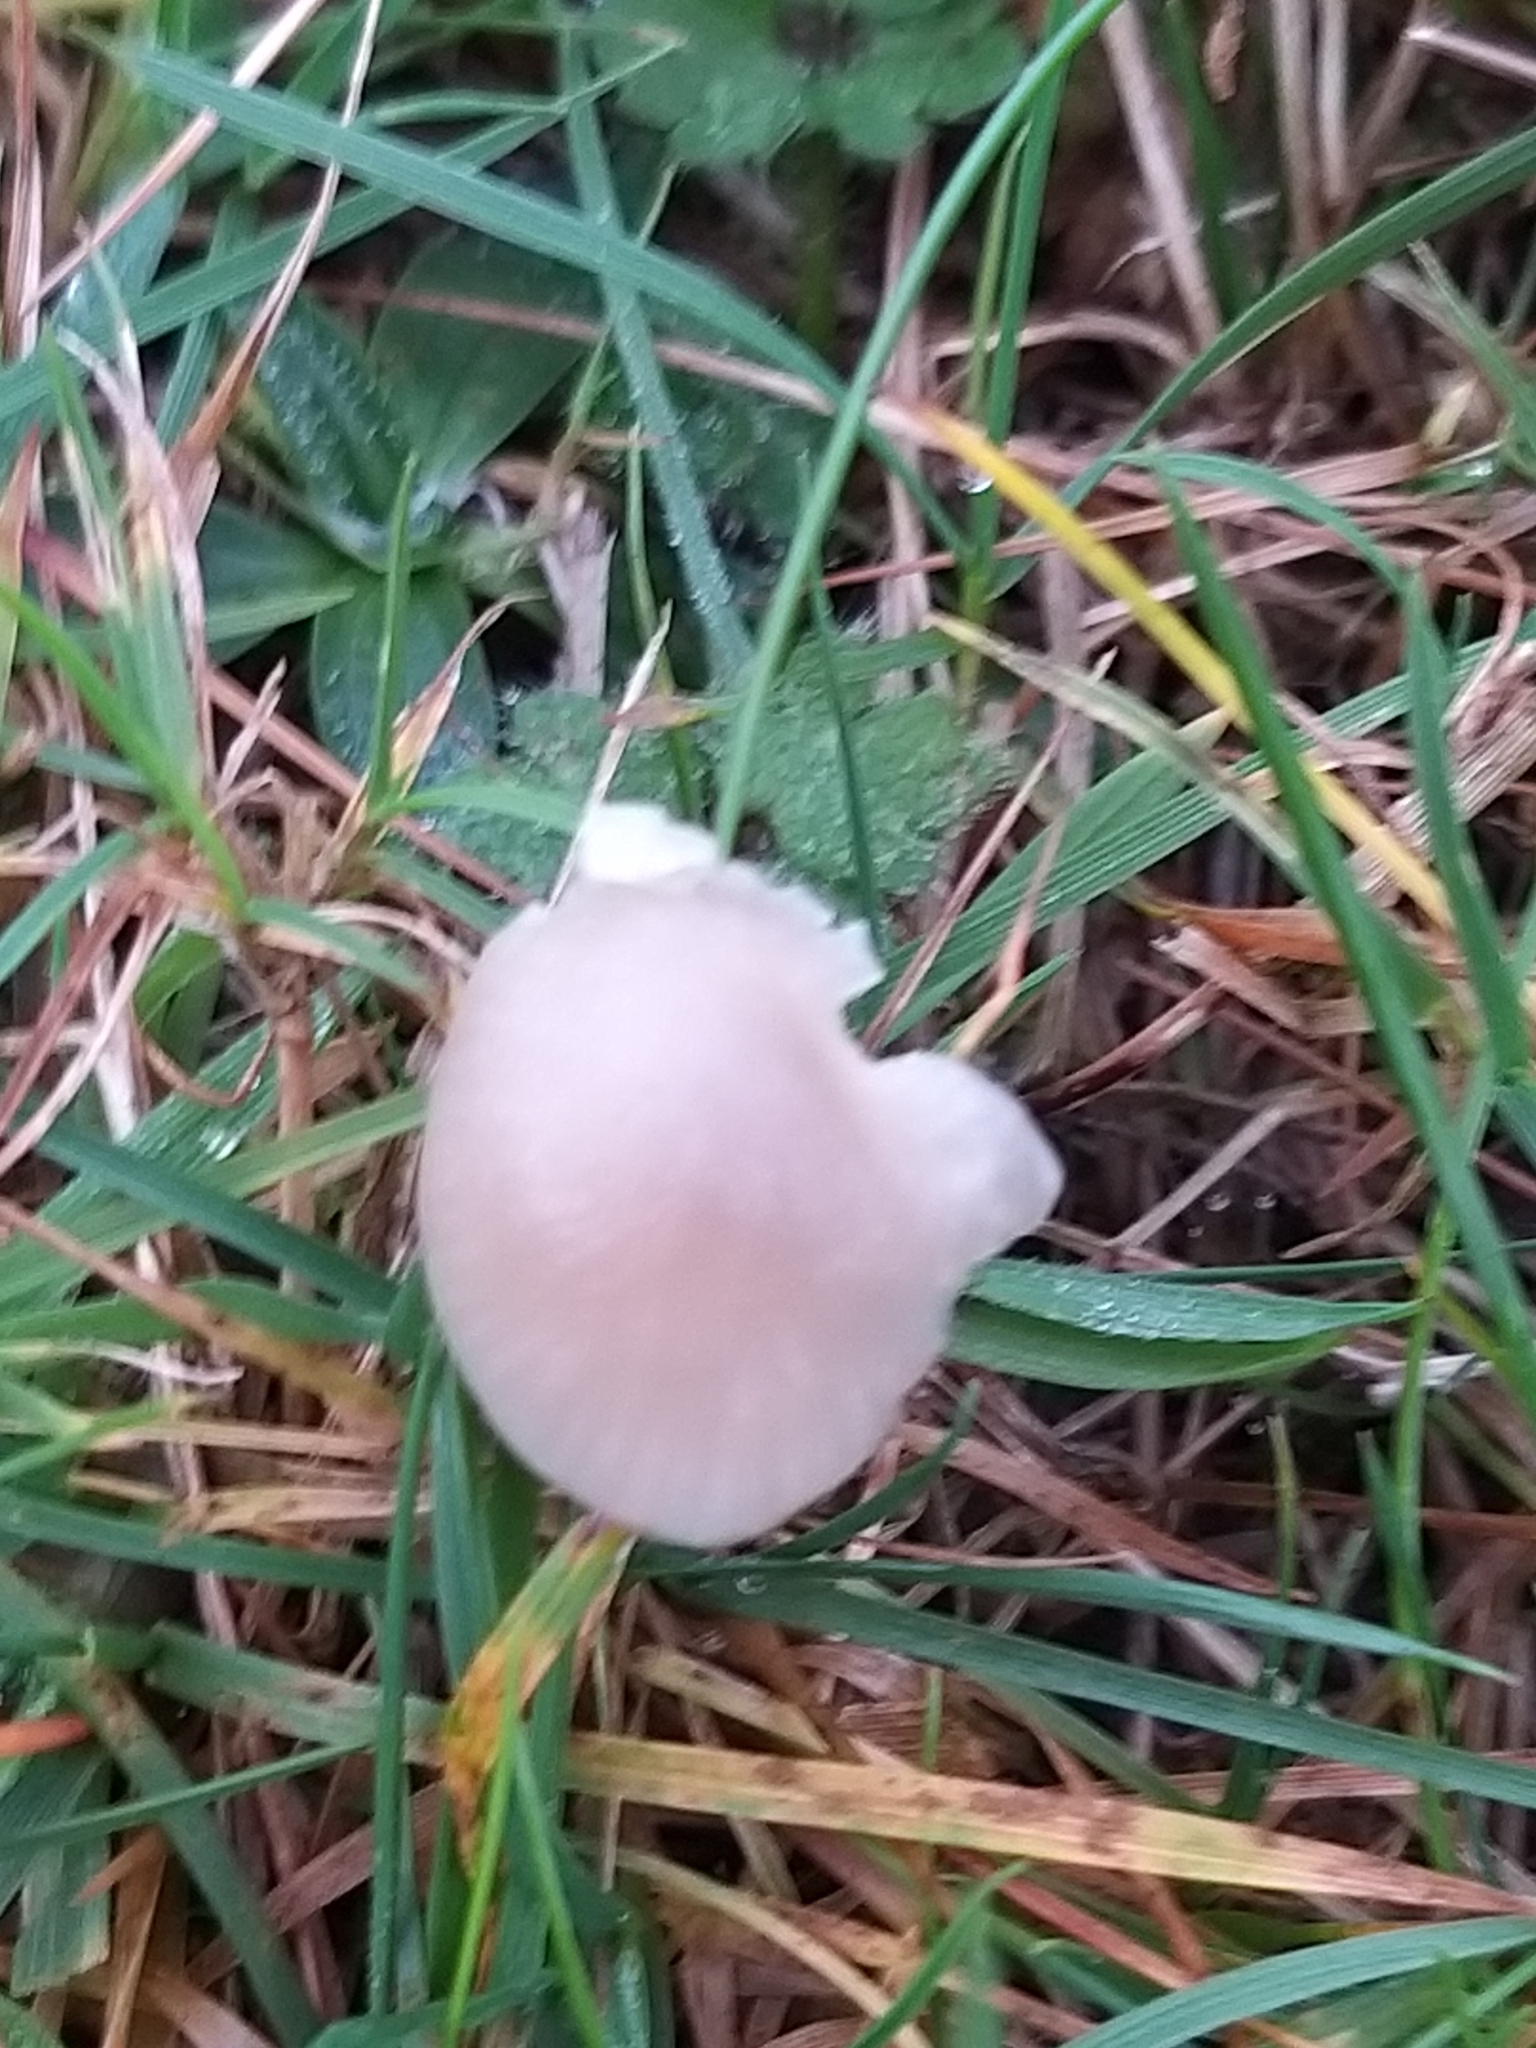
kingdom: Fungi
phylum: Basidiomycota
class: Agaricomycetes
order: Agaricales
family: Hygrophoraceae
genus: Gliophorus
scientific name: Gliophorus irrigatus
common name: Slimy waxcap
